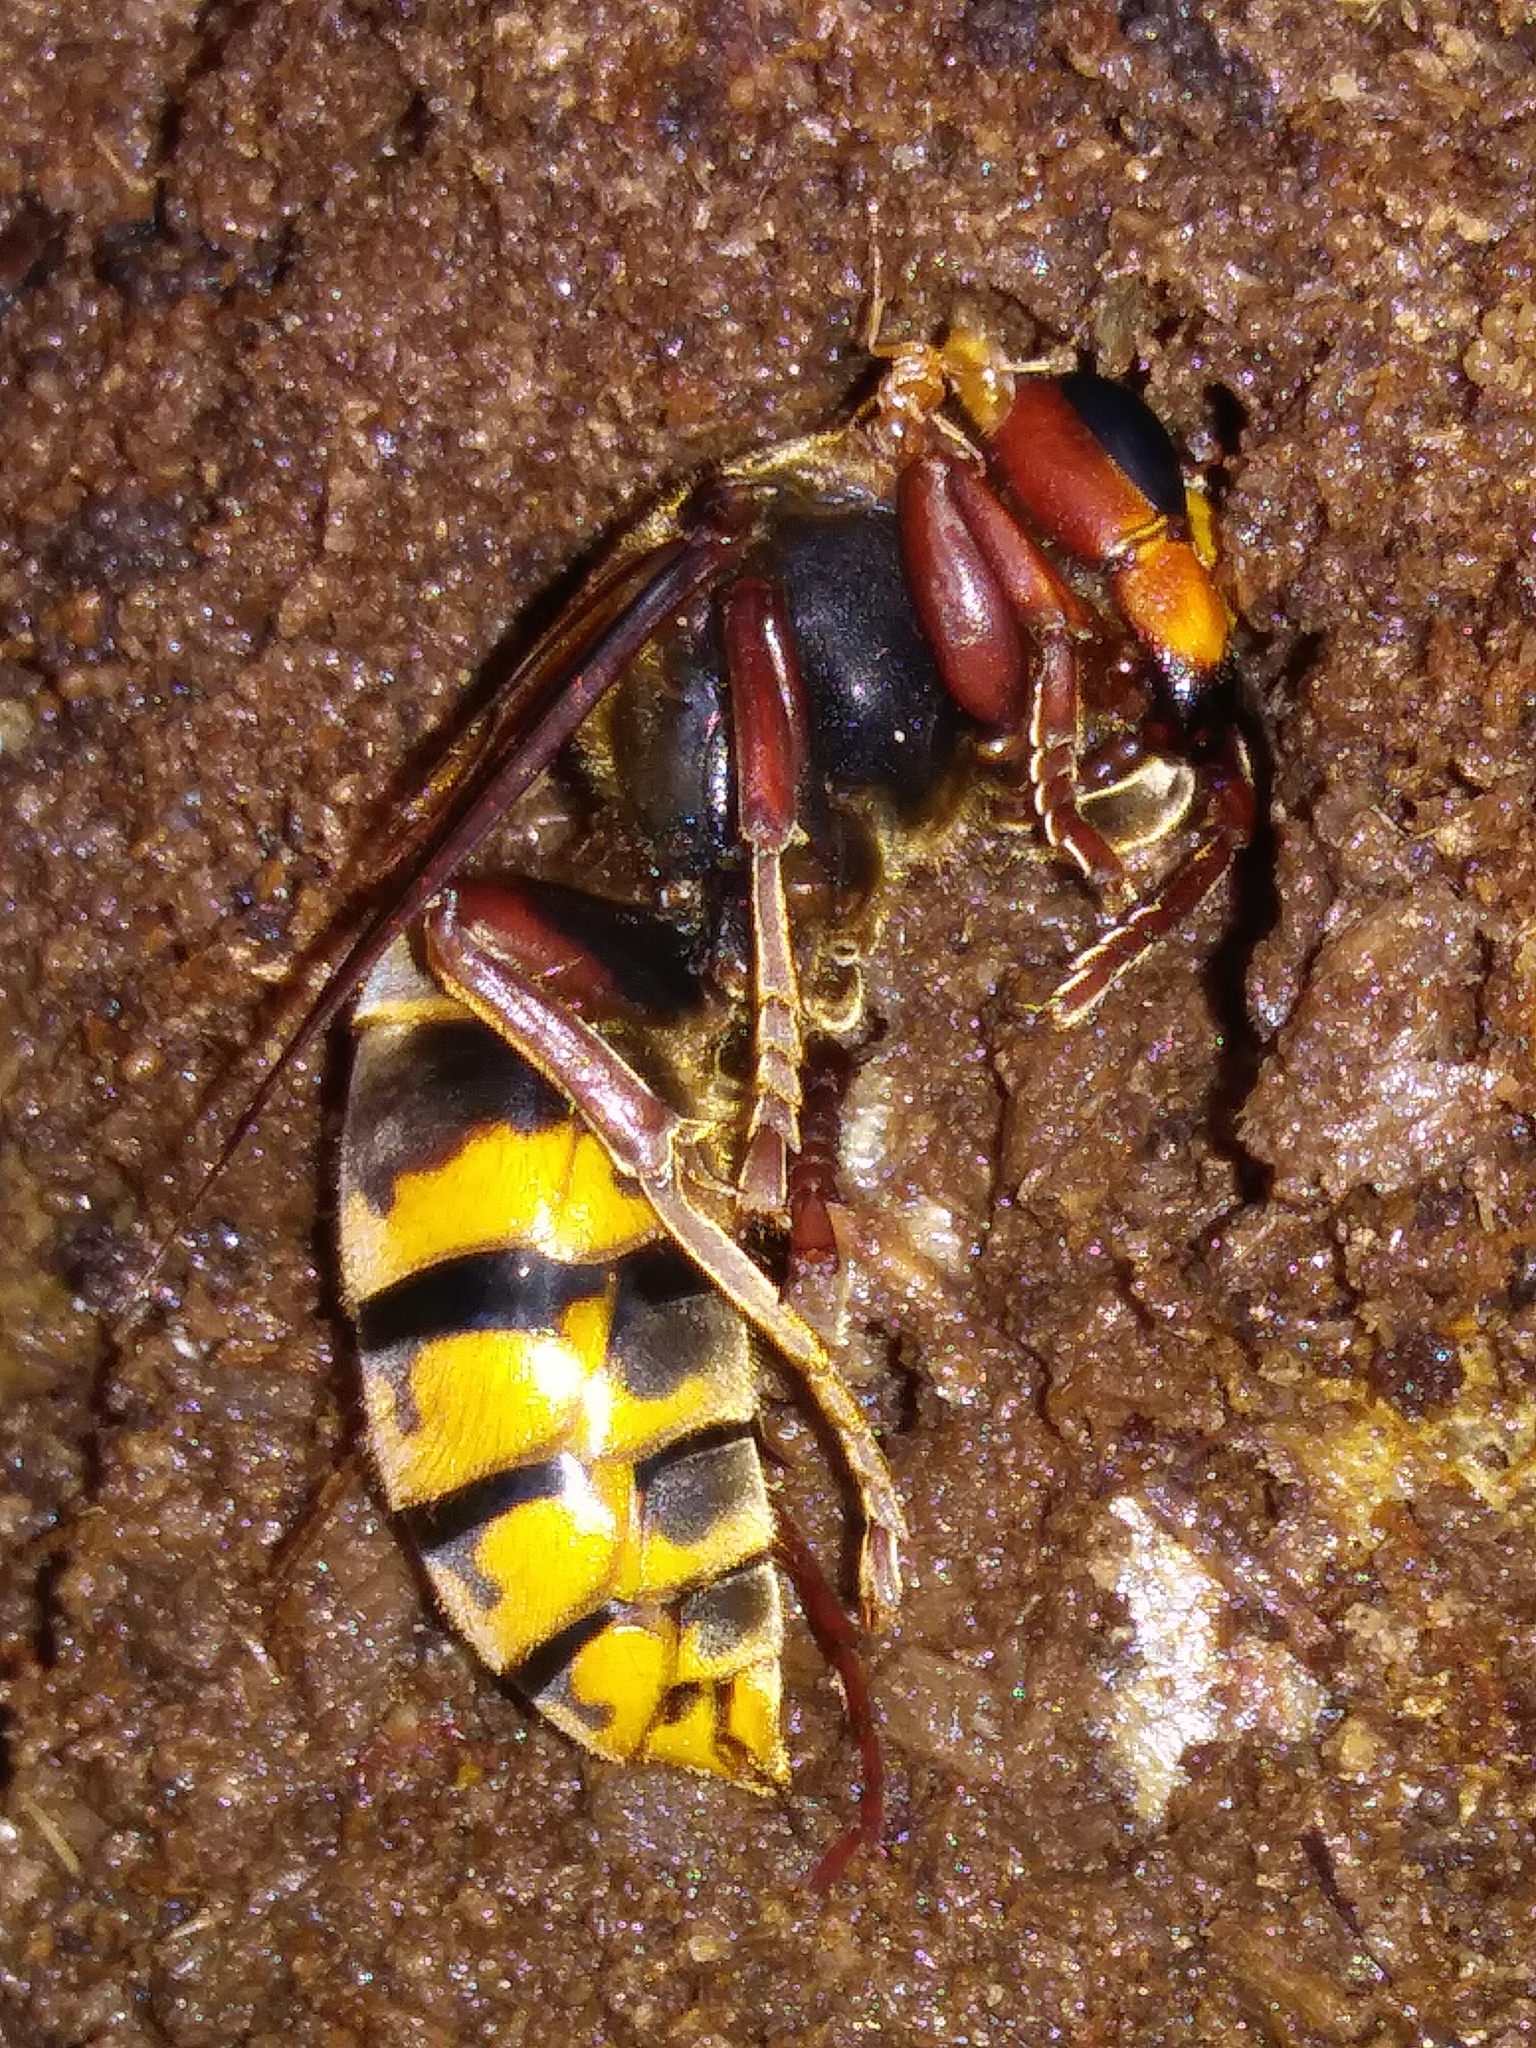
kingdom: Animalia
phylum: Arthropoda
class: Insecta
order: Hymenoptera
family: Vespidae
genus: Vespa
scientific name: Vespa crabro
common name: Hornet
